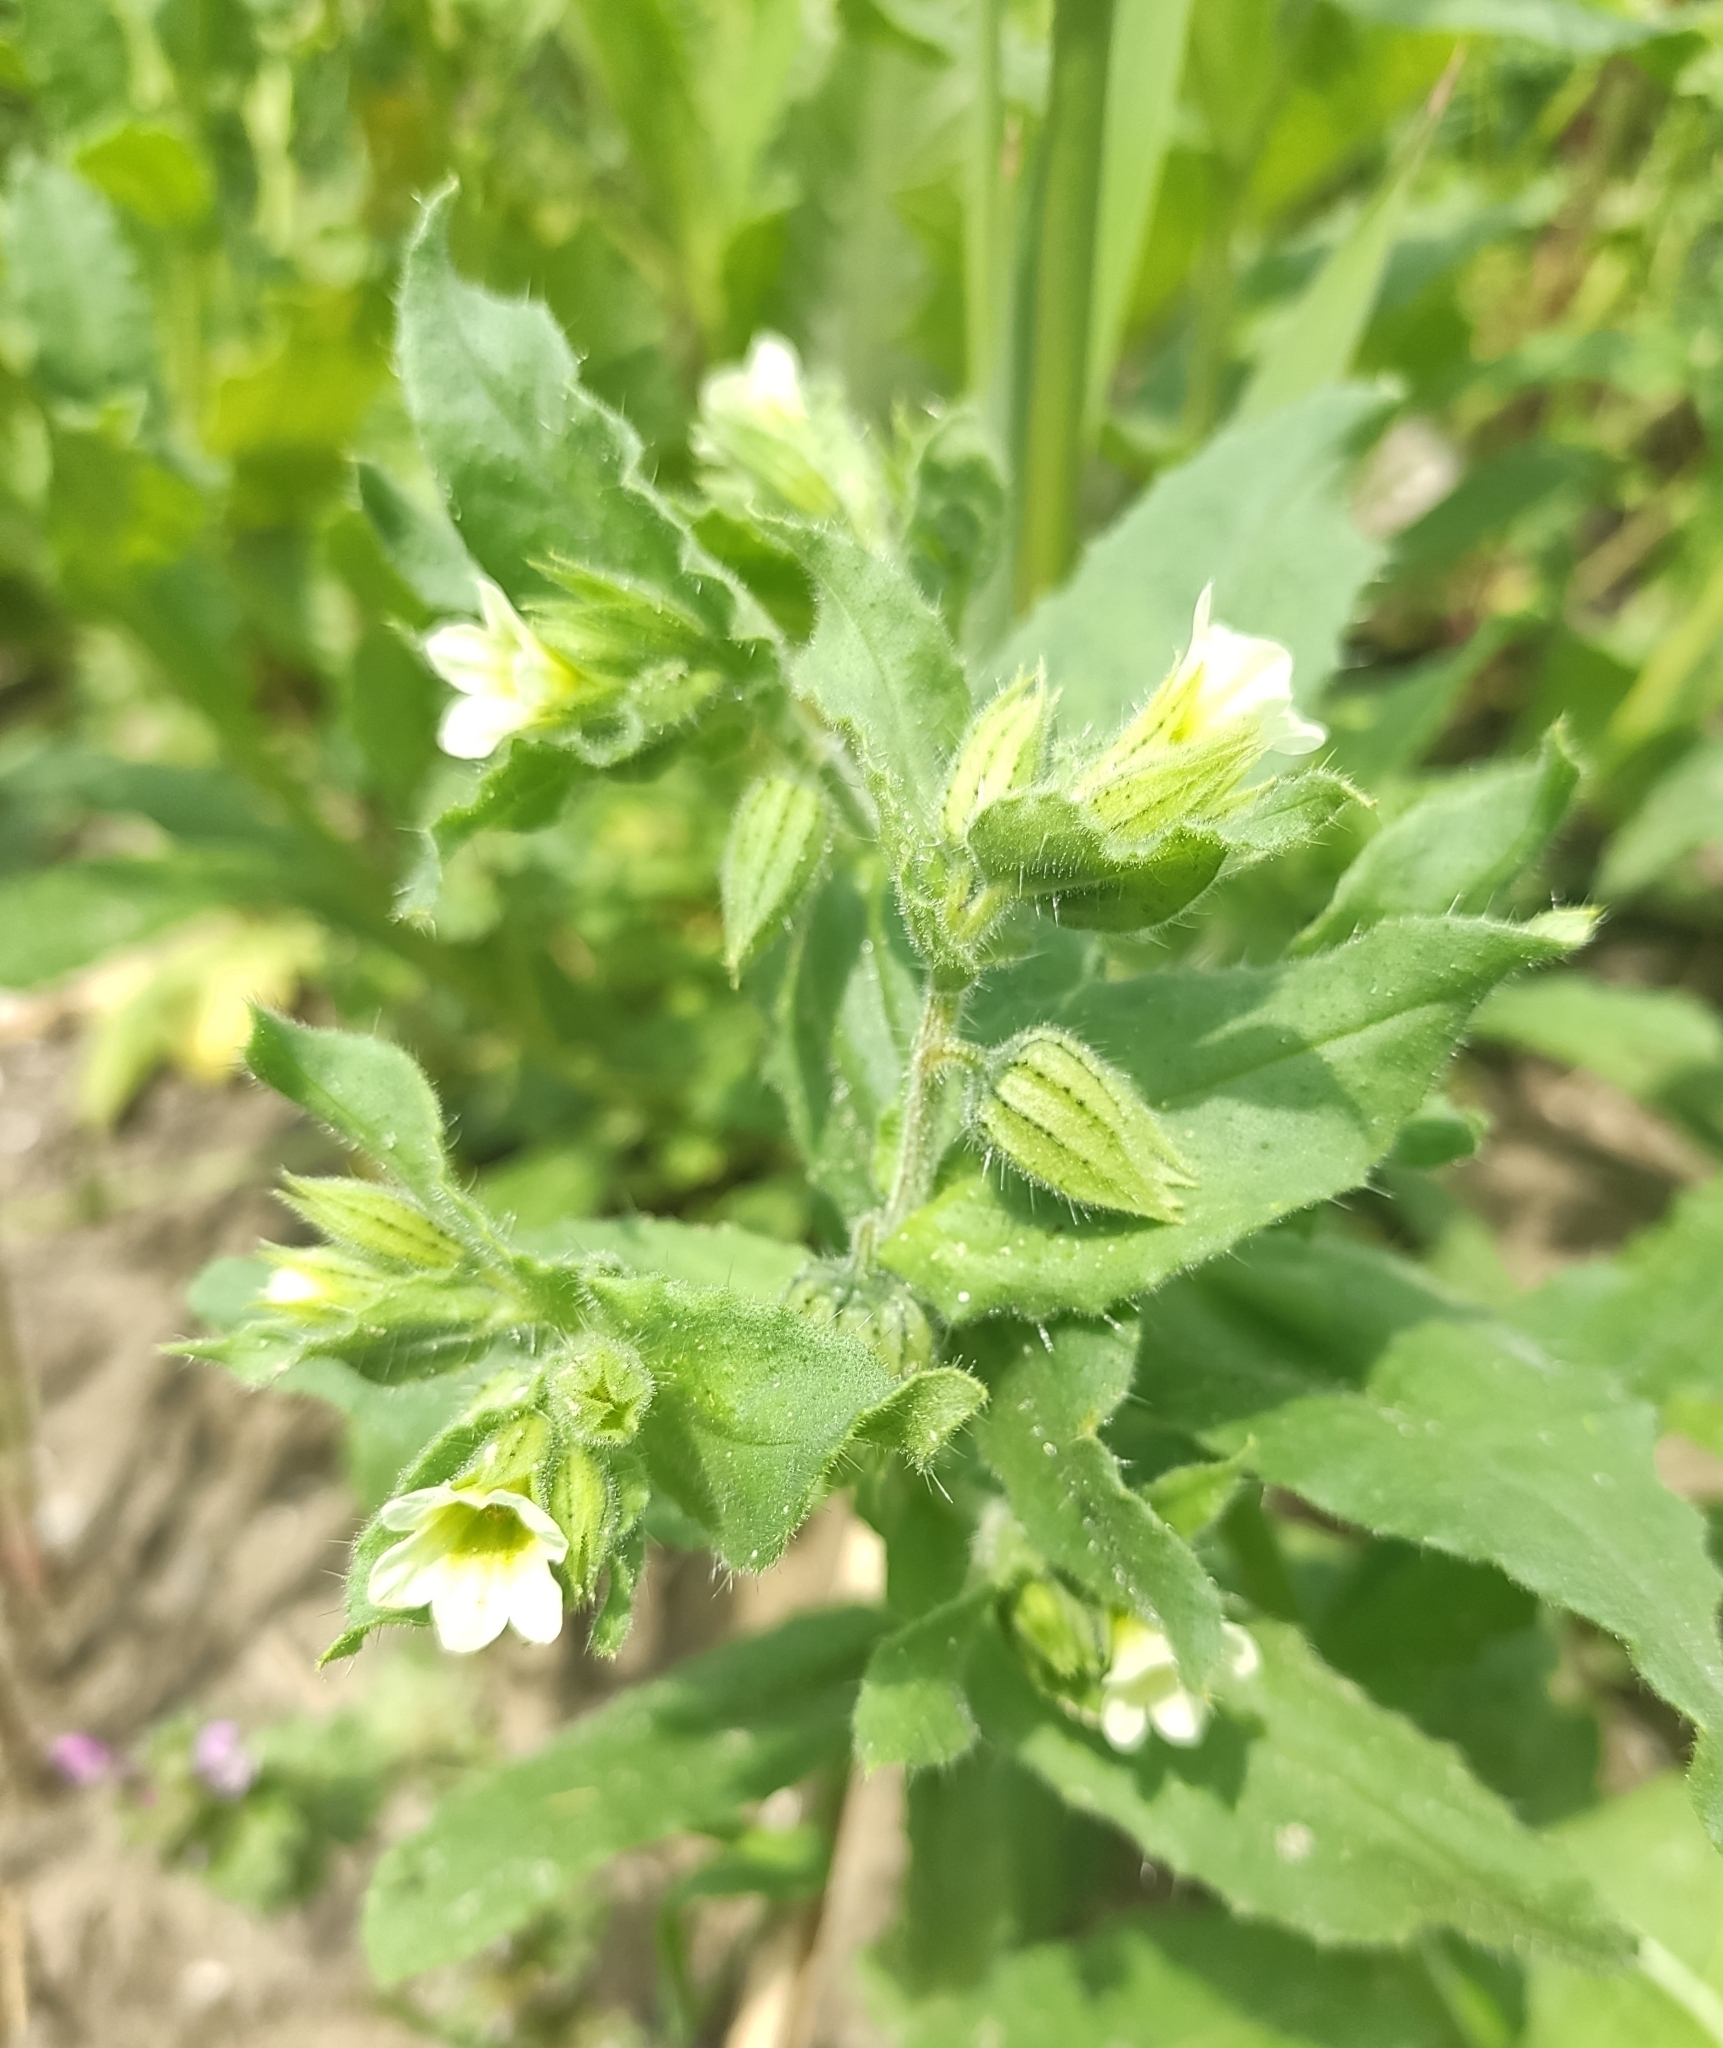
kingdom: Plantae
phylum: Tracheophyta
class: Magnoliopsida
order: Boraginales
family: Boraginaceae
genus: Nonea
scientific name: Nonea lutea
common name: Yellow nonea
